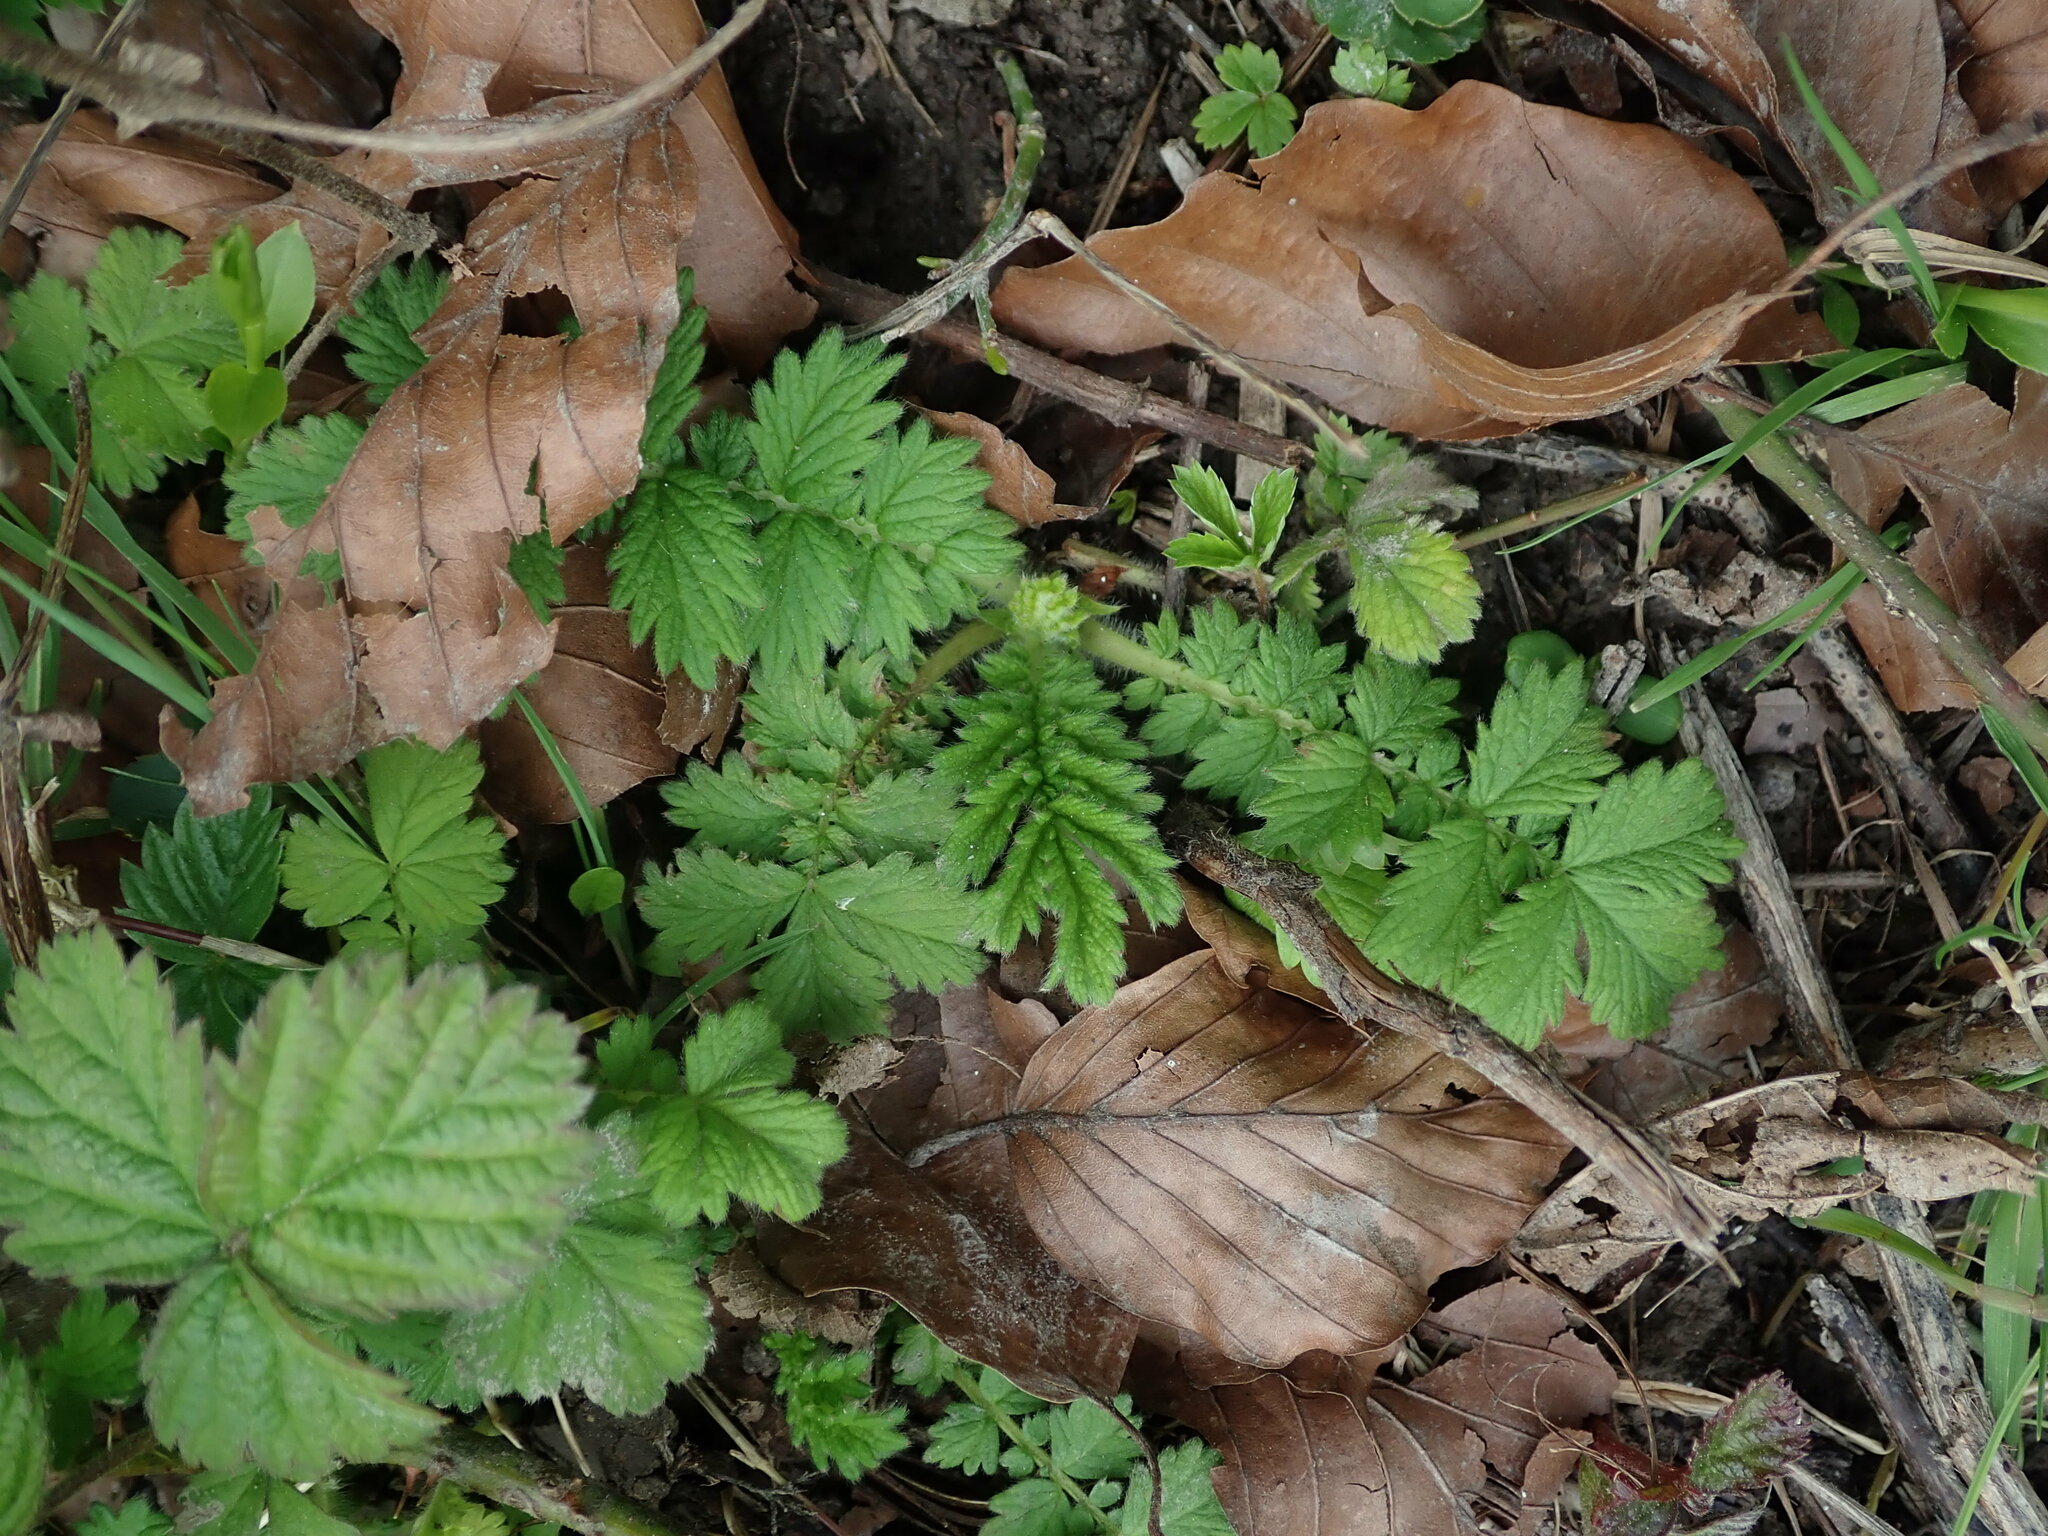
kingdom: Plantae
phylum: Tracheophyta
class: Magnoliopsida
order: Rosales
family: Rosaceae
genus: Agrimonia
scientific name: Agrimonia eupatoria
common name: Agrimony
